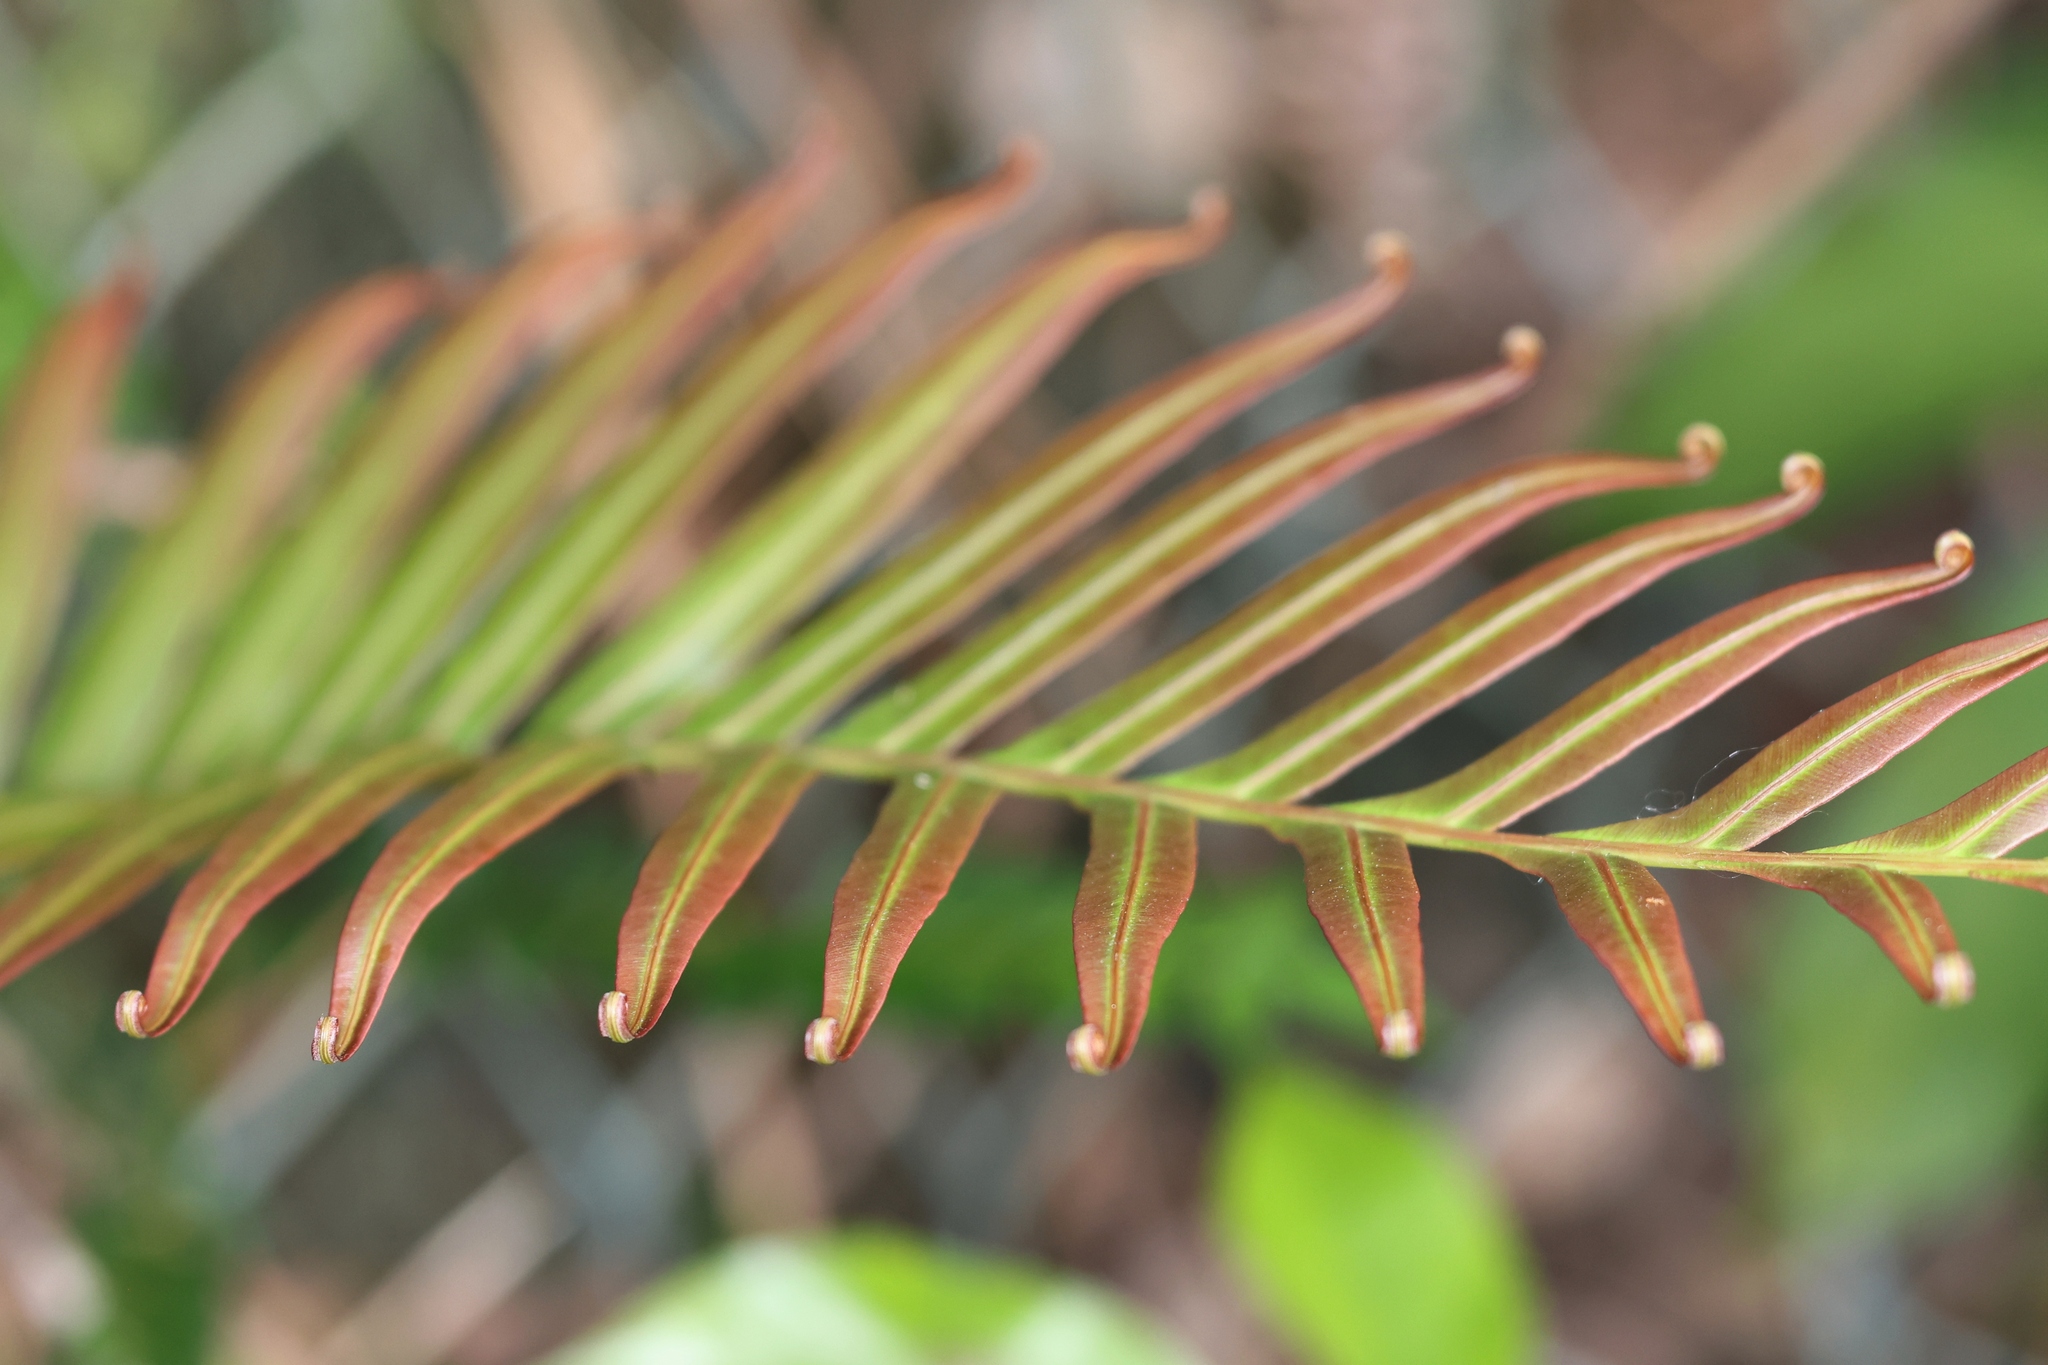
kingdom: Plantae
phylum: Tracheophyta
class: Polypodiopsida
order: Polypodiales
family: Blechnaceae
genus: Blechnopsis
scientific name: Blechnopsis orientalis
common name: Oriental blechnum
